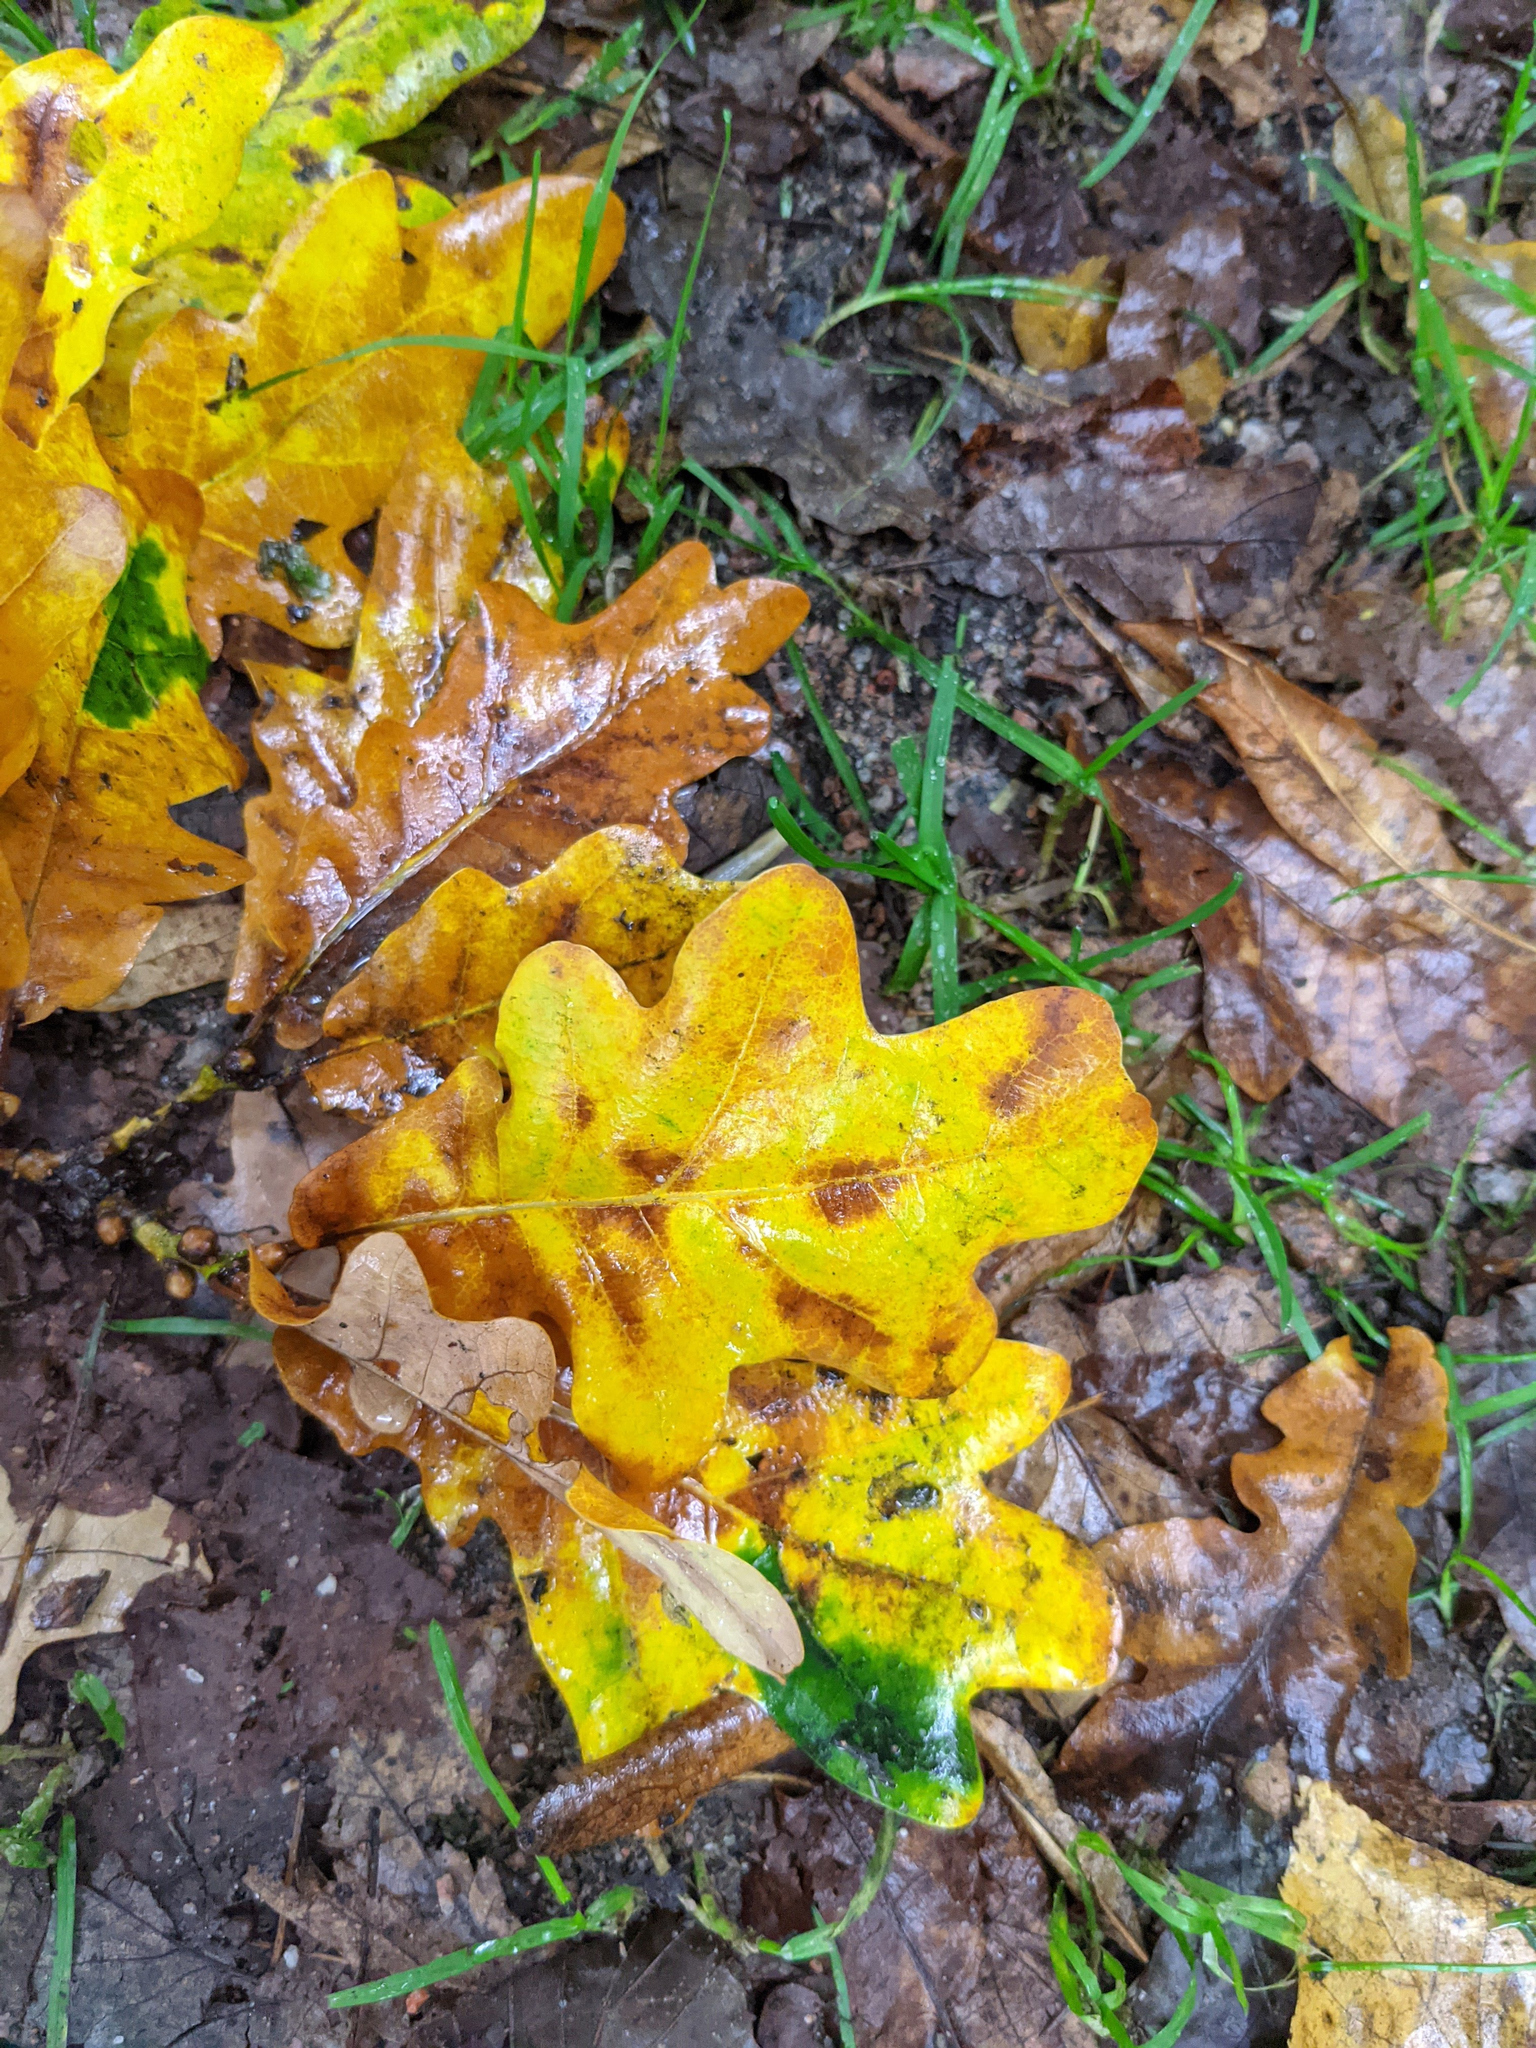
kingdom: Plantae
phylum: Tracheophyta
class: Magnoliopsida
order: Fagales
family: Fagaceae
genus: Quercus
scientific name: Quercus robur
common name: Pedunculate oak
